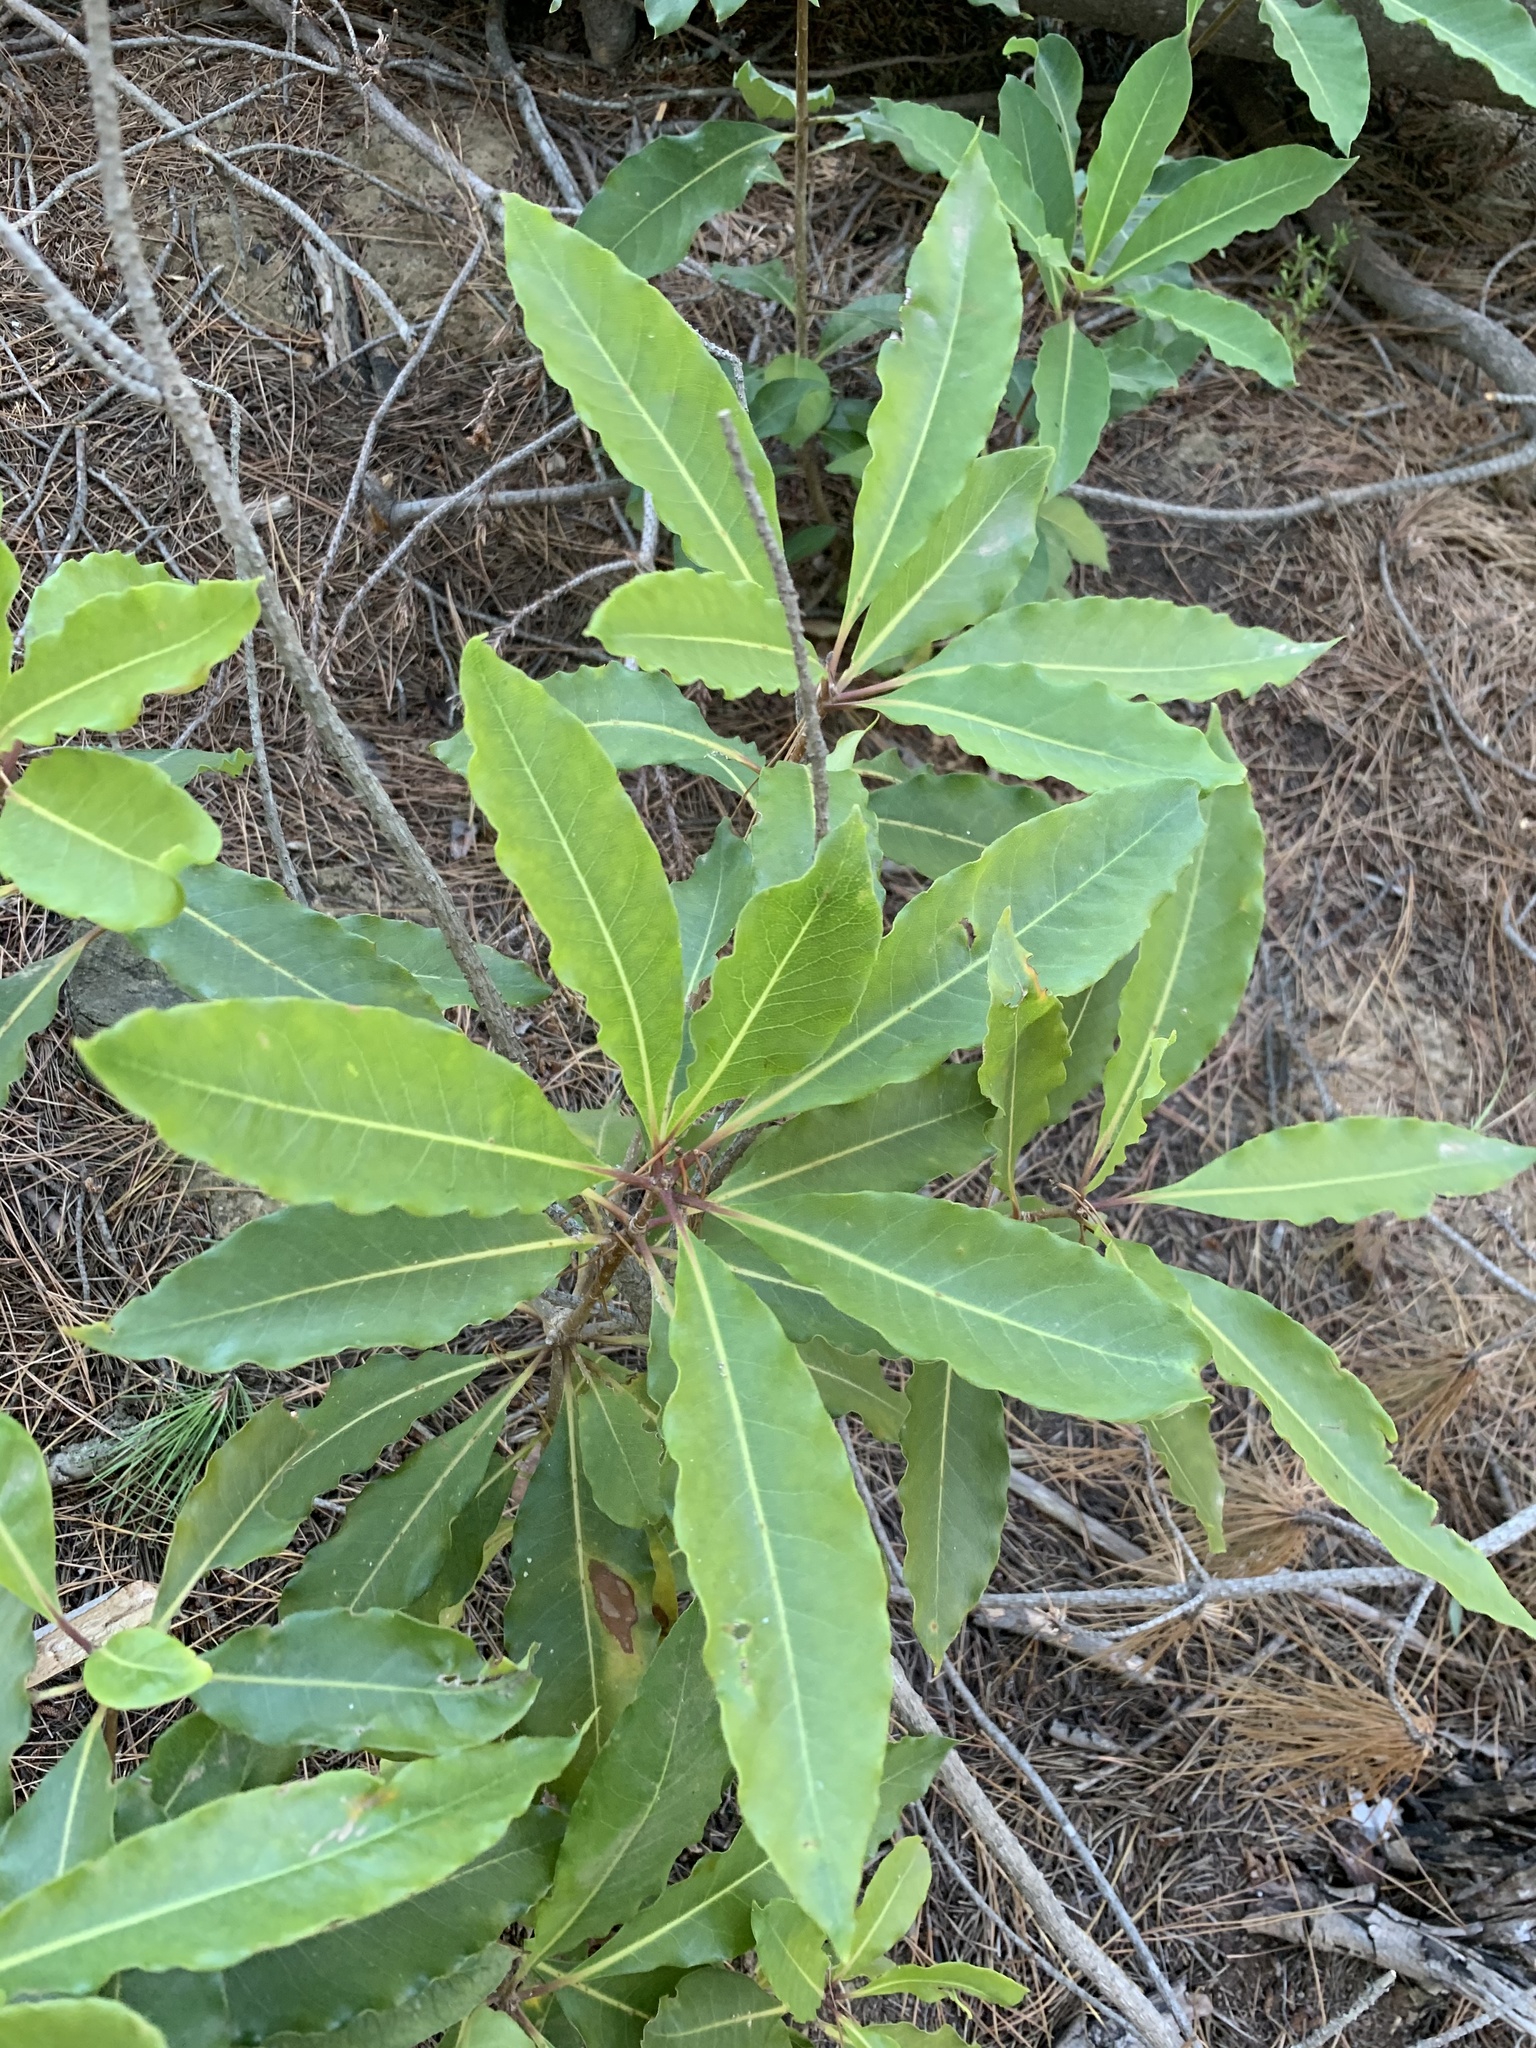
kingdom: Plantae
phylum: Tracheophyta
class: Magnoliopsida
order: Apiales
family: Pittosporaceae
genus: Pittosporum
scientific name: Pittosporum undulatum
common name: Australian cheesewood
